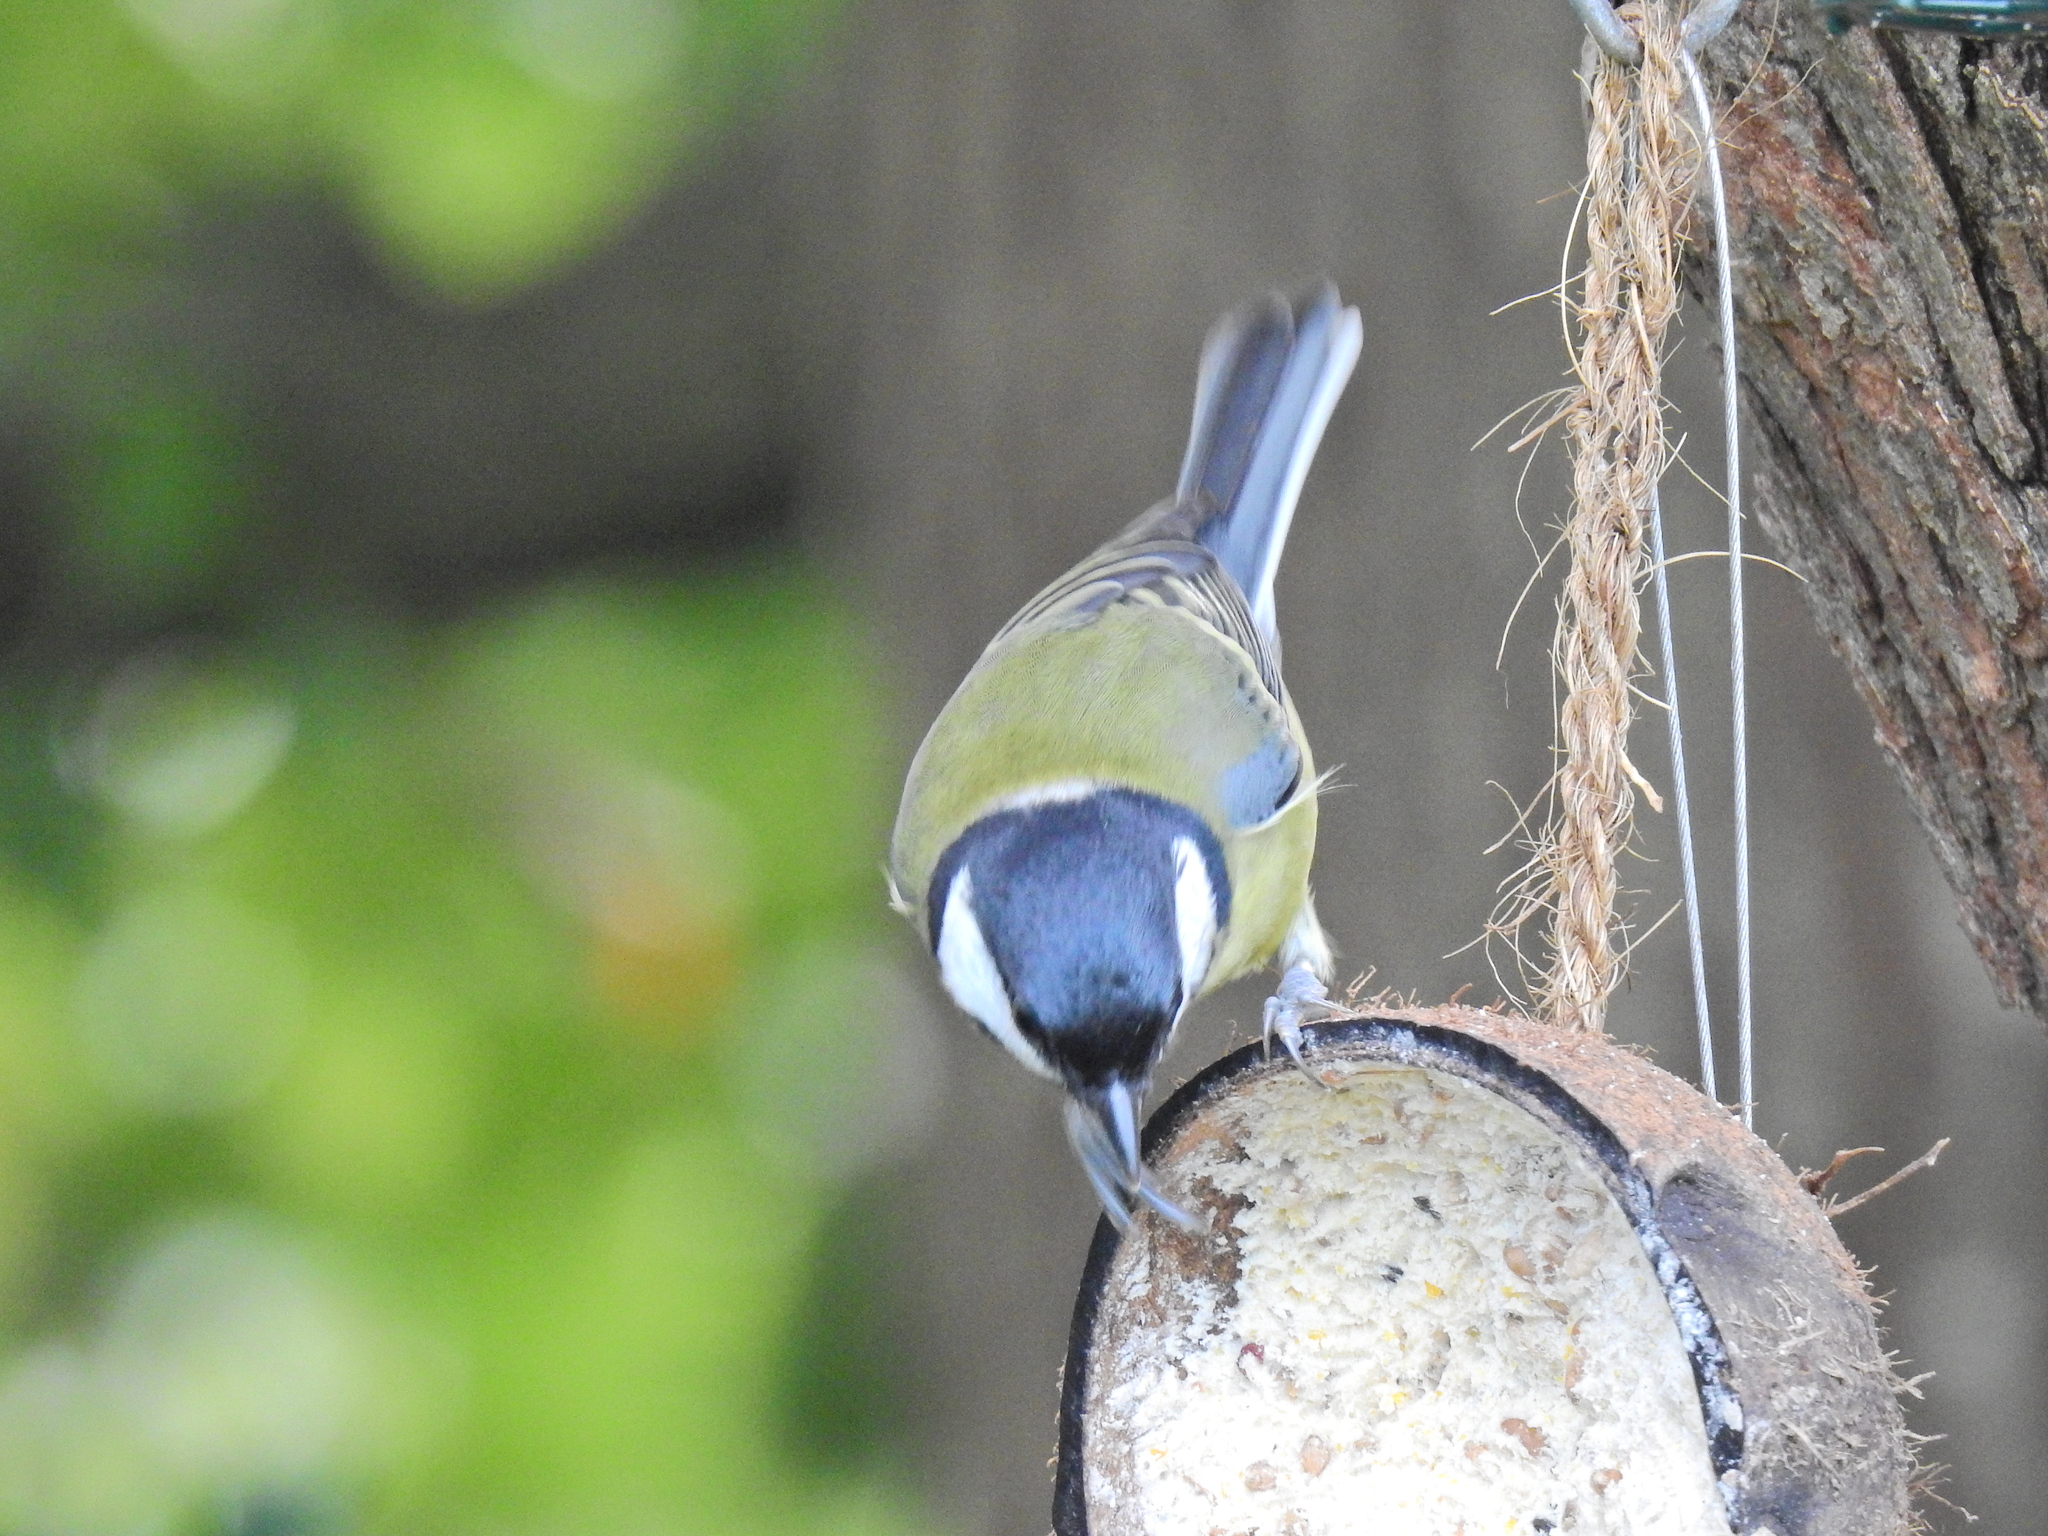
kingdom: Animalia
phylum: Chordata
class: Aves
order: Passeriformes
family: Paridae
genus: Parus
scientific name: Parus major
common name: Great tit
